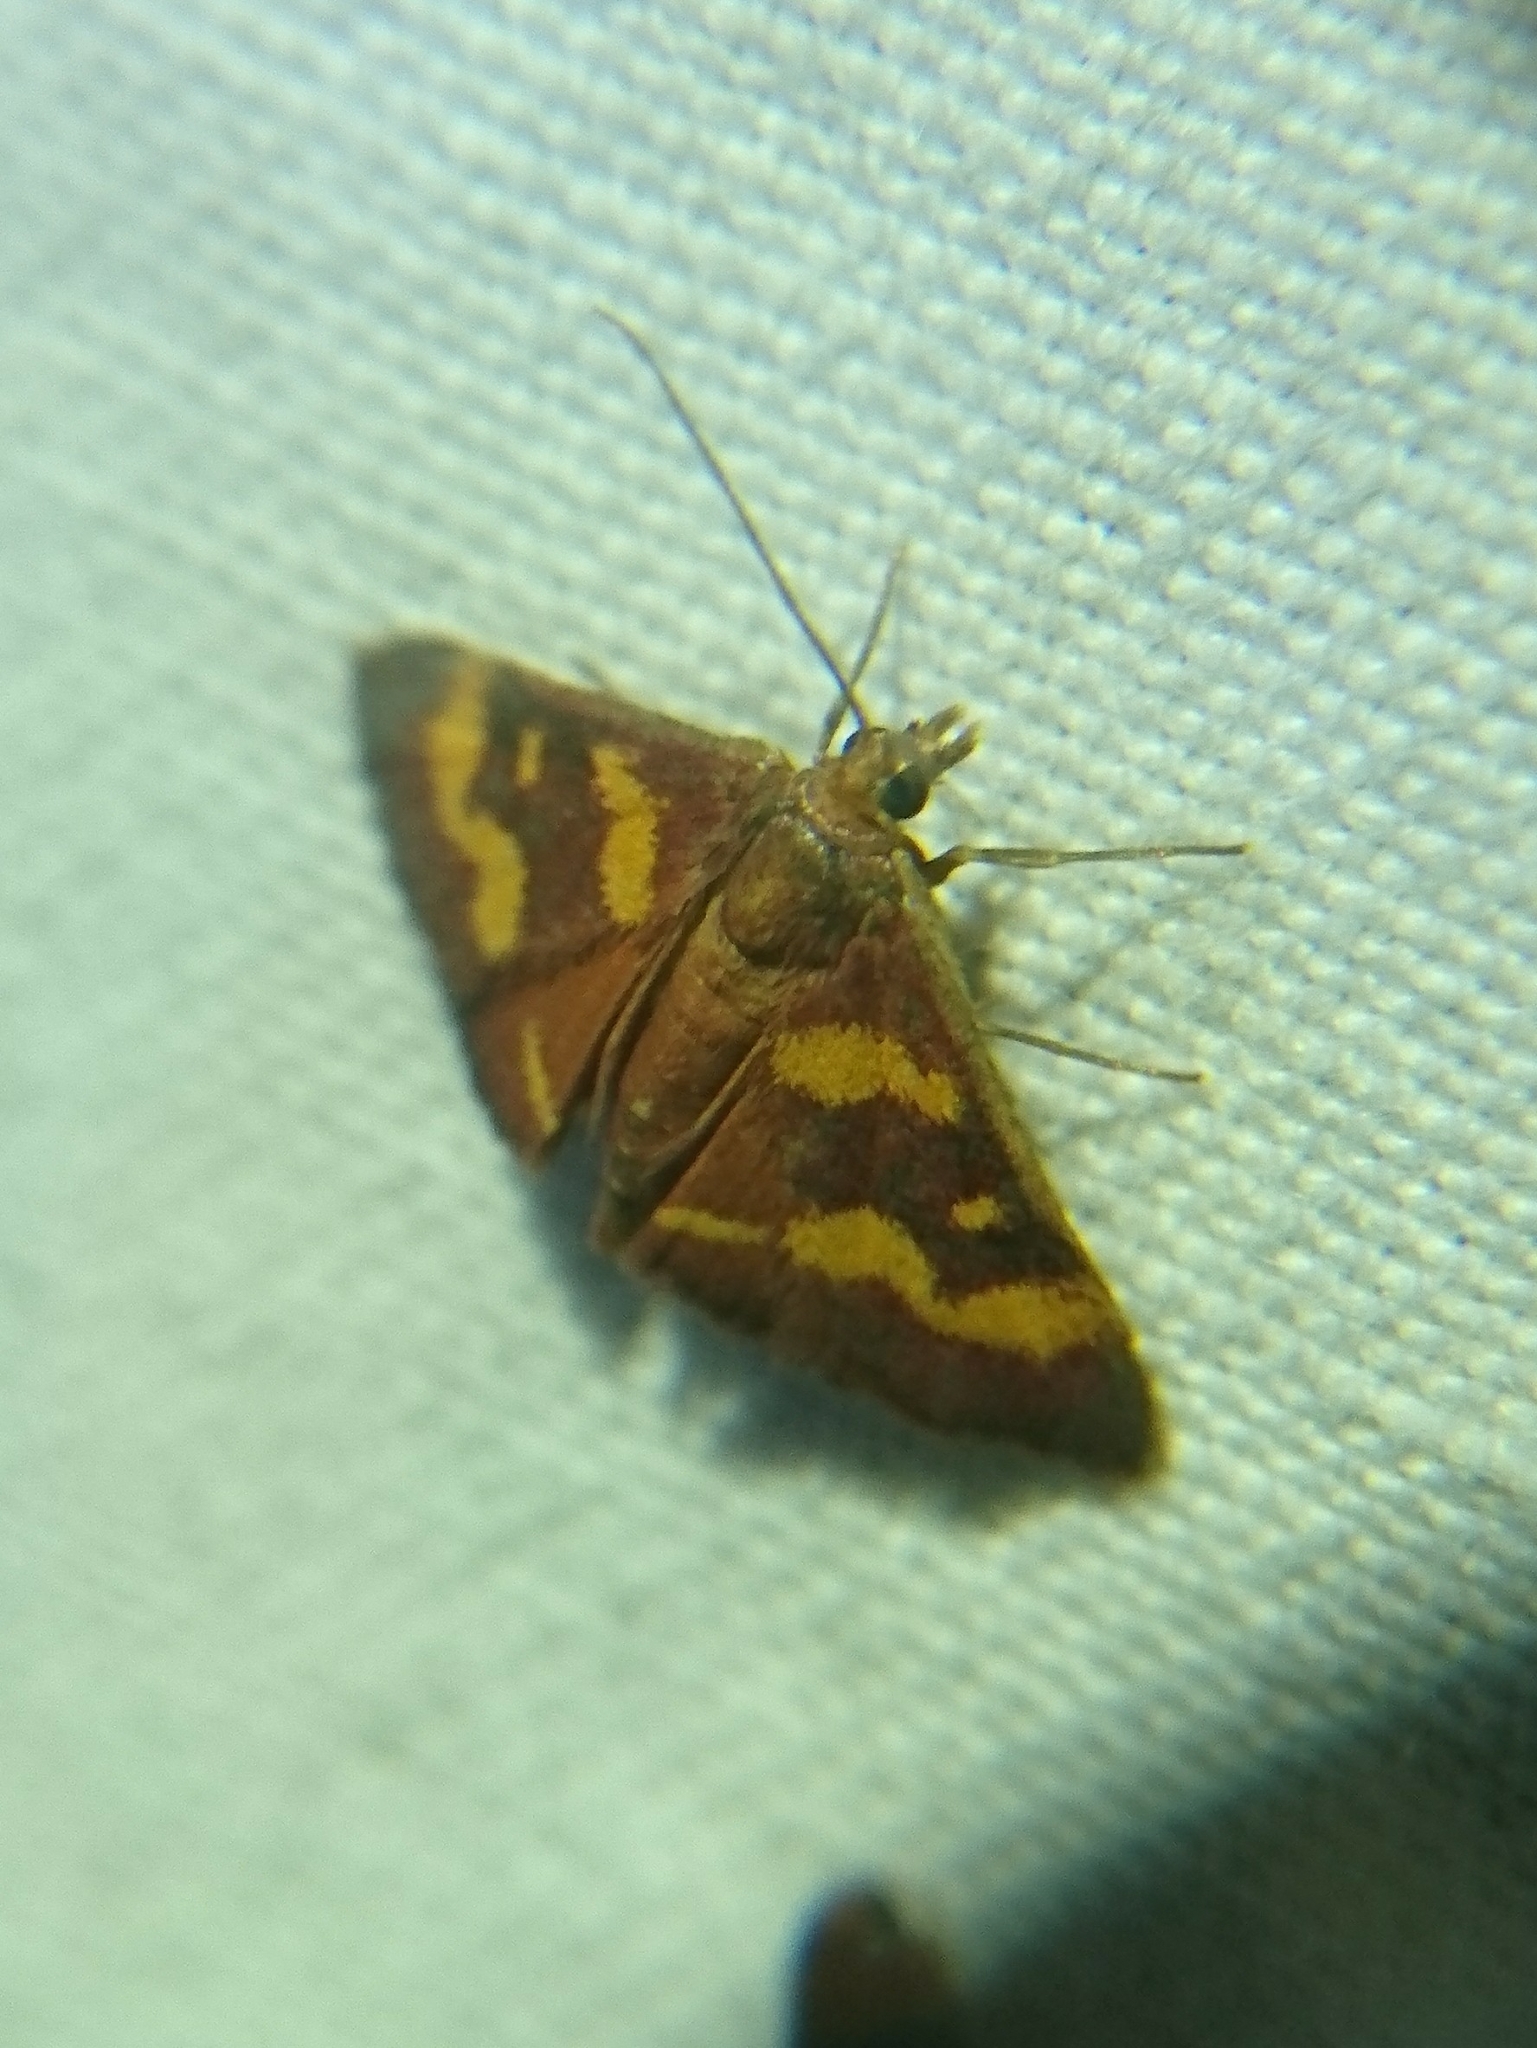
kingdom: Animalia
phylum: Arthropoda
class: Insecta
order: Lepidoptera
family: Crambidae
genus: Pyrausta
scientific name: Pyrausta tyralis
